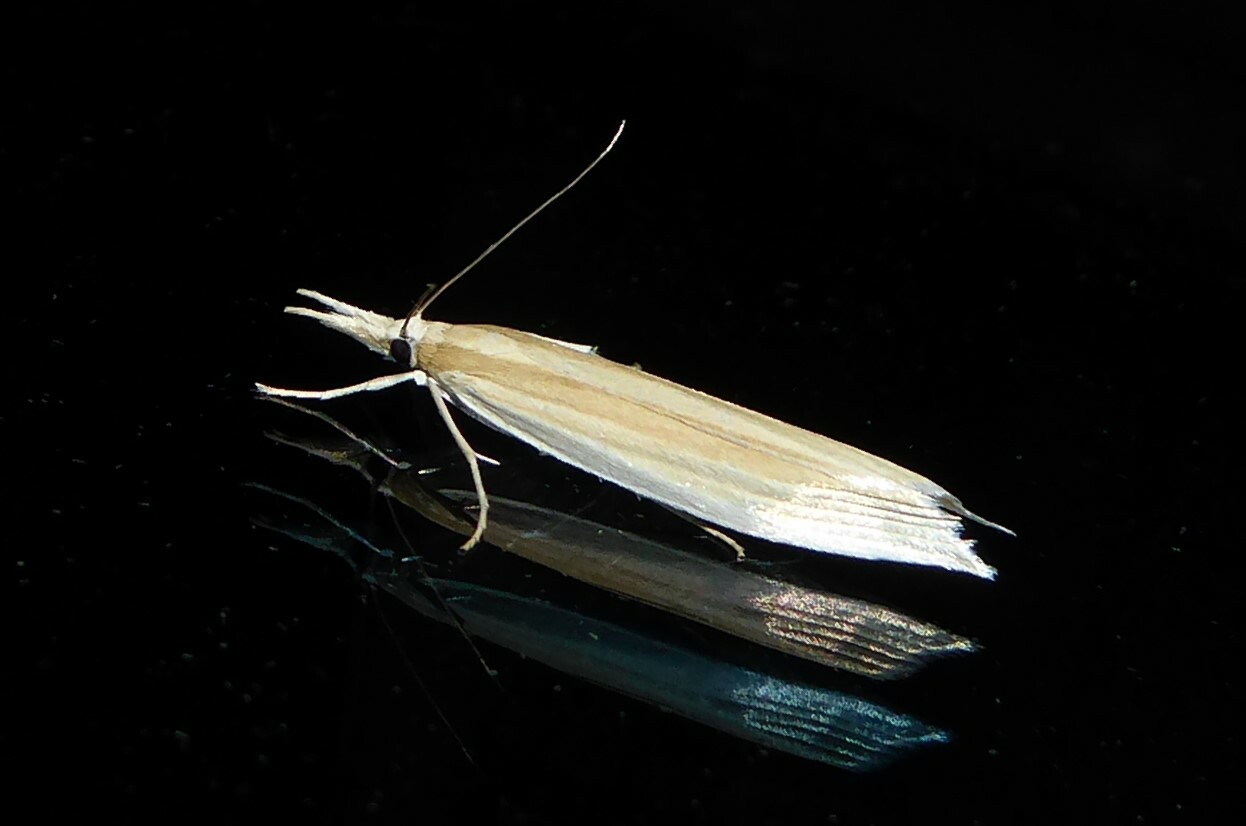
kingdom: Animalia
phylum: Arthropoda
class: Insecta
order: Lepidoptera
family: Crambidae
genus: Orocrambus
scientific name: Orocrambus angustipennis
